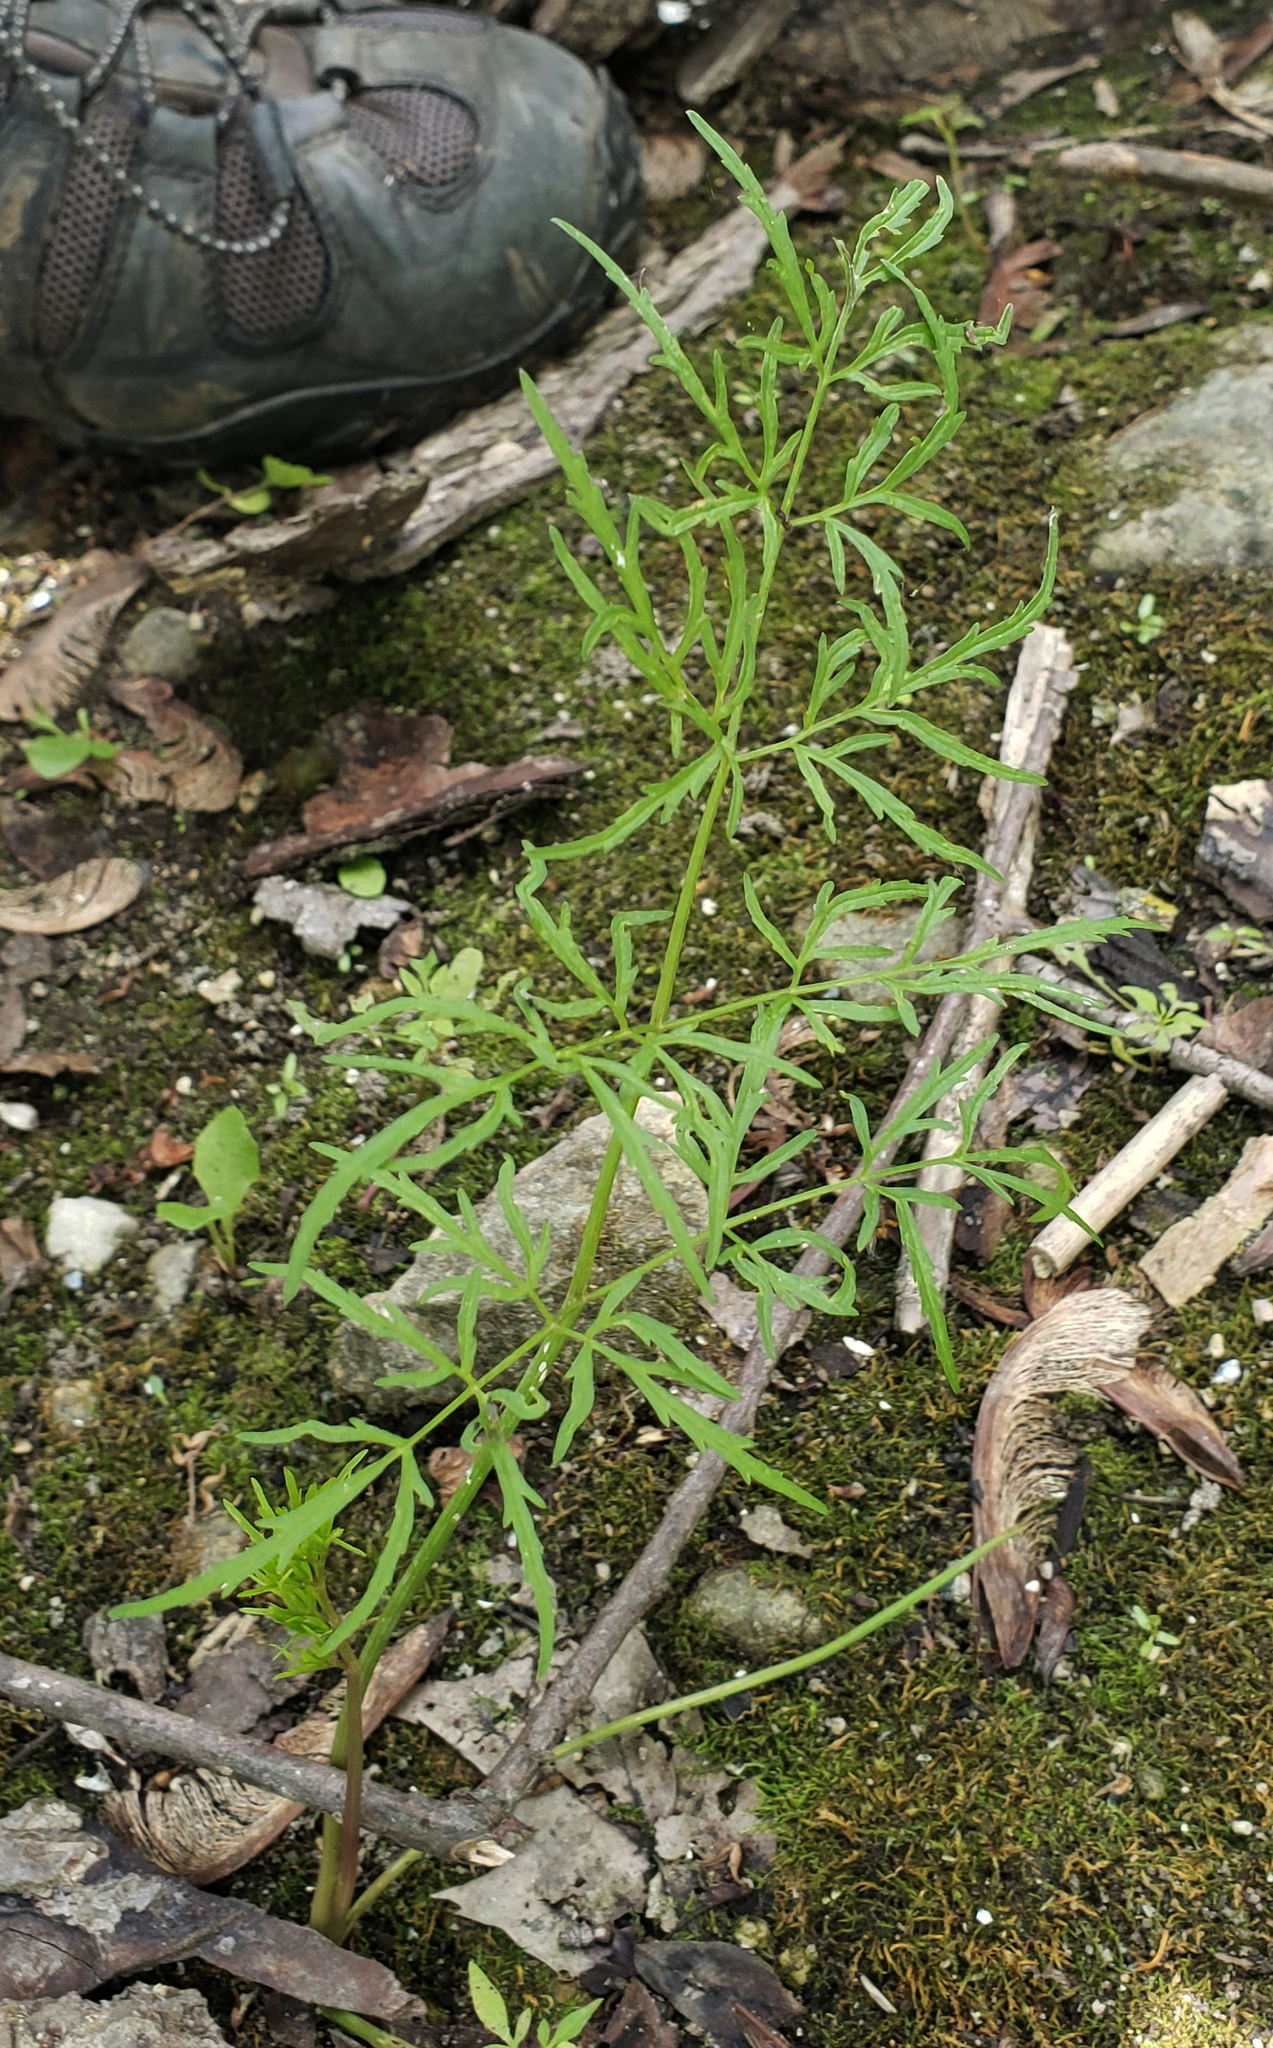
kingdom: Plantae
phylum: Tracheophyta
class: Magnoliopsida
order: Apiales
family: Apiaceae
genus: Cicuta
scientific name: Cicuta bulbifera
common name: Bulb-bearing water-hemlock
